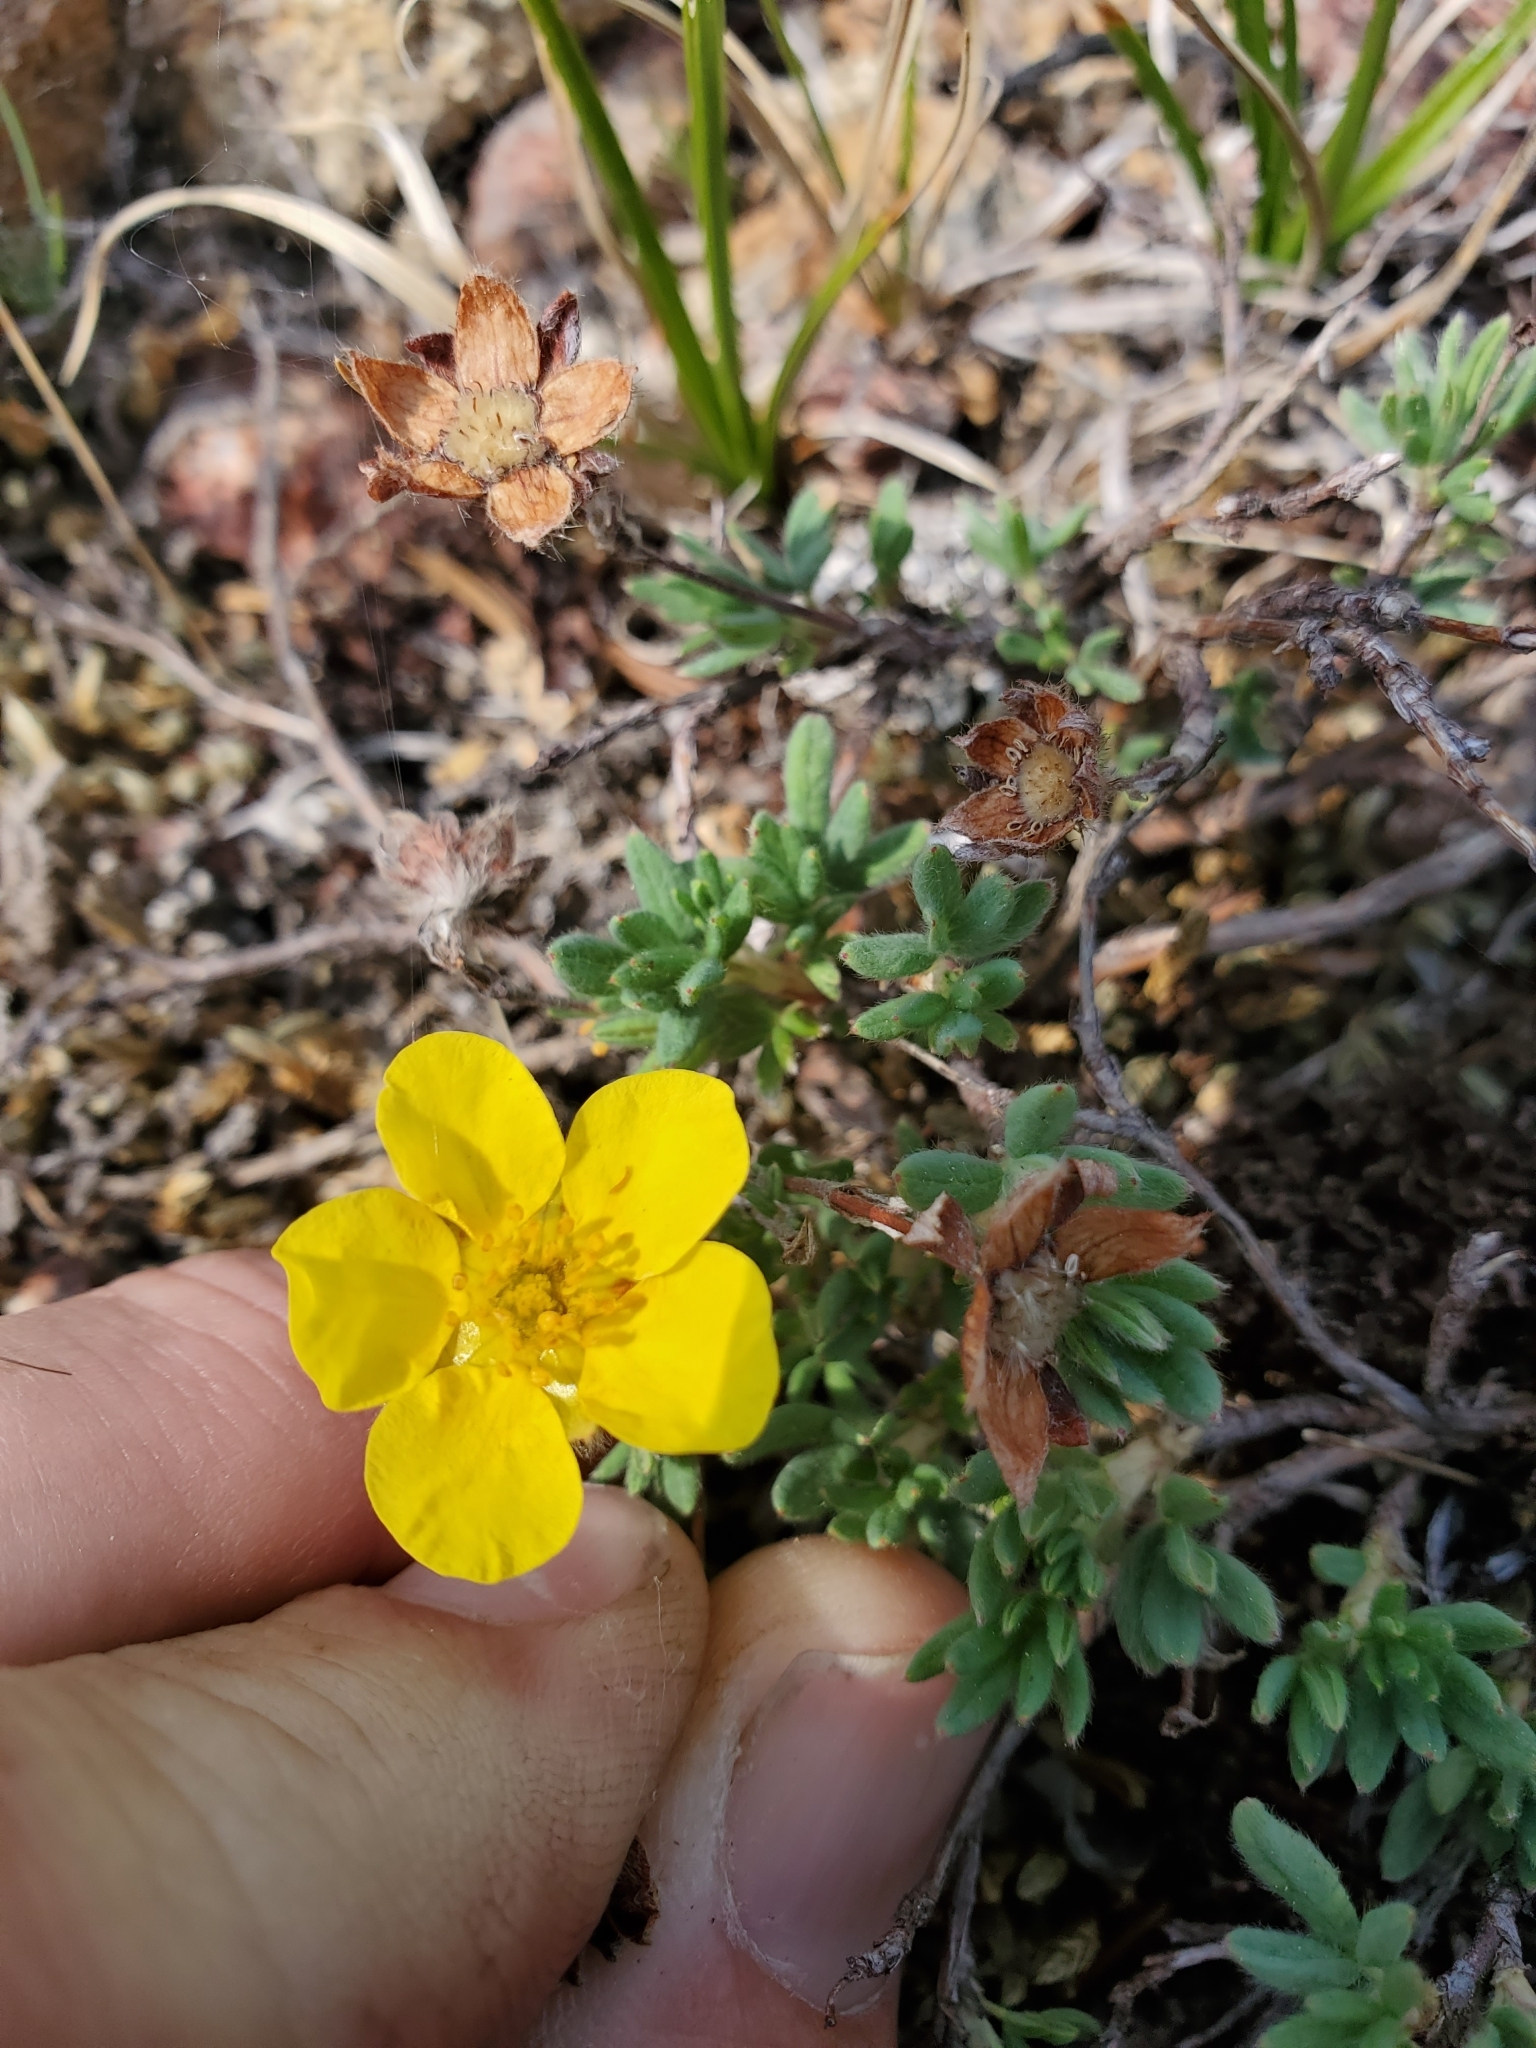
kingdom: Plantae
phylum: Tracheophyta
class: Magnoliopsida
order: Rosales
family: Rosaceae
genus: Dasiphora
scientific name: Dasiphora fruticosa
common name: Shrubby cinquefoil
